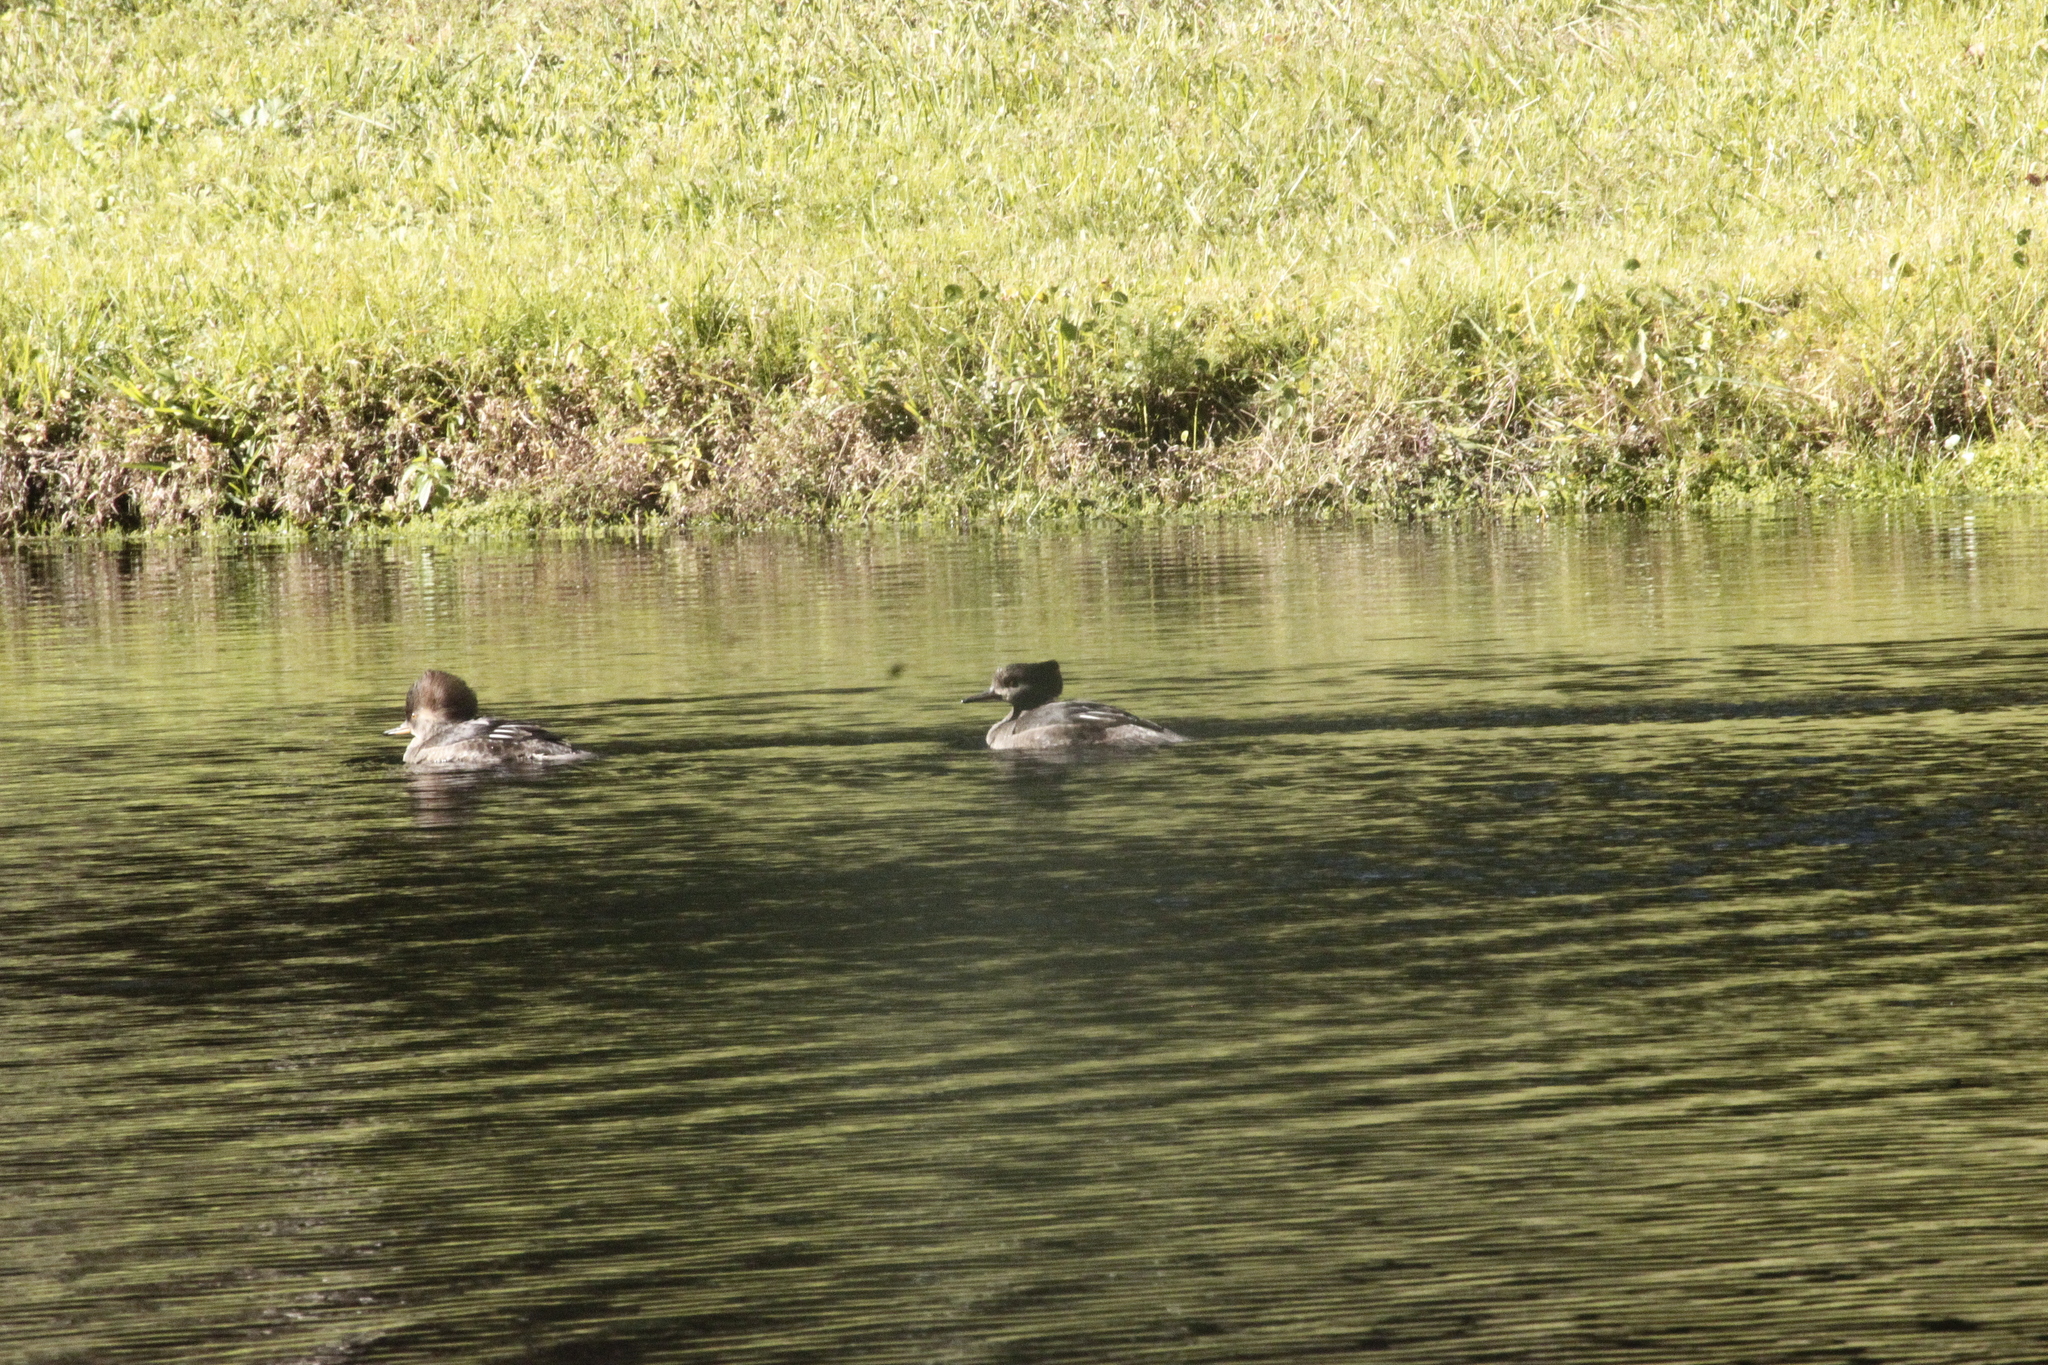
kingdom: Animalia
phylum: Chordata
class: Aves
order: Anseriformes
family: Anatidae
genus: Lophodytes
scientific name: Lophodytes cucullatus
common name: Hooded merganser
